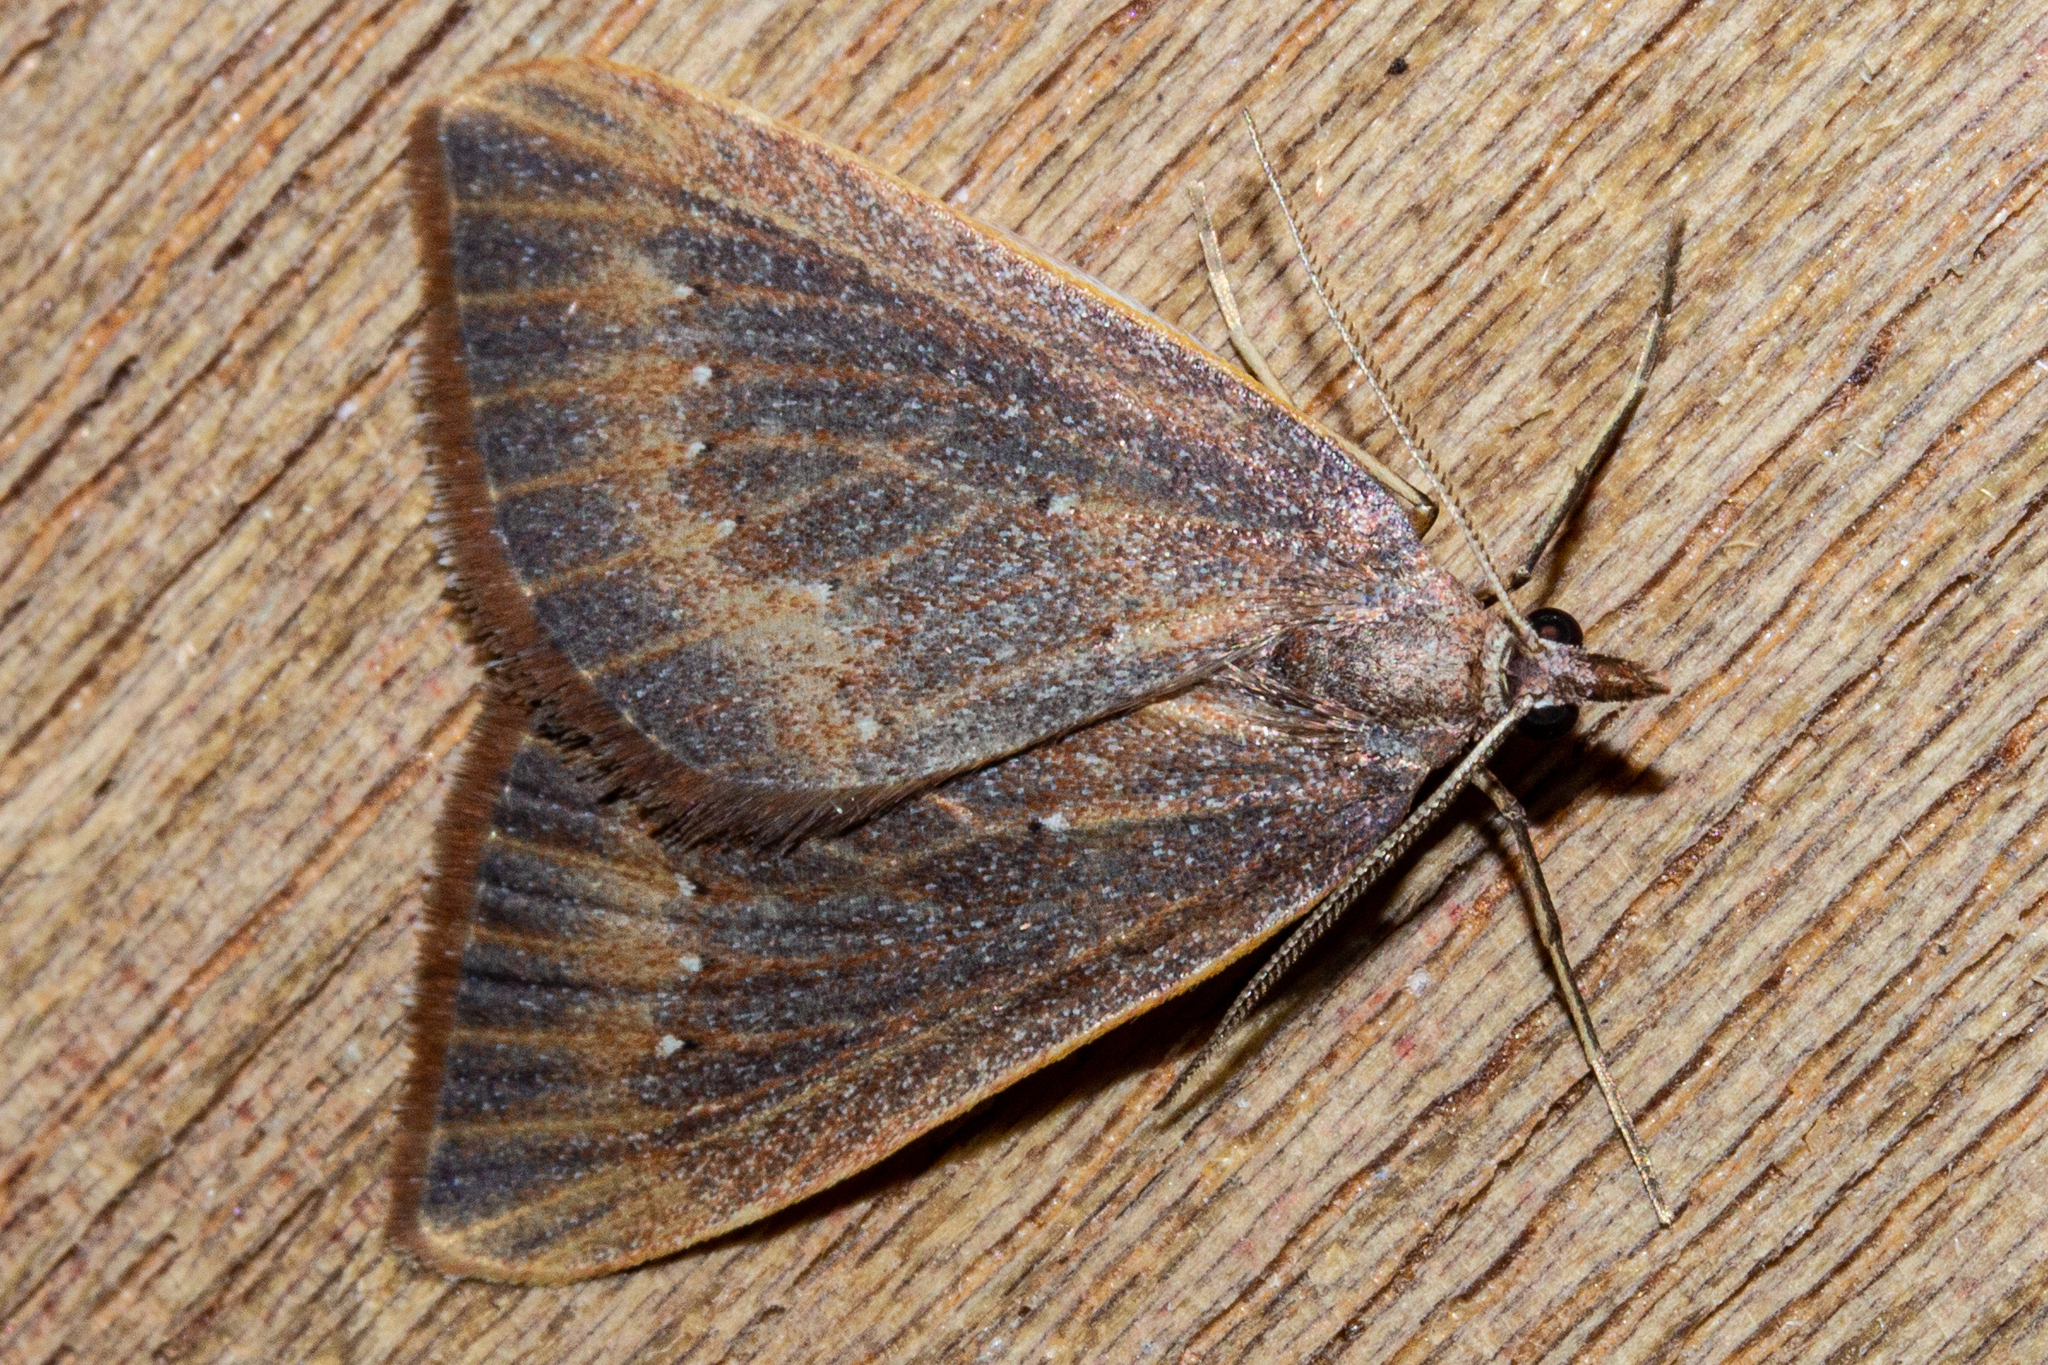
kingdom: Animalia
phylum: Arthropoda
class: Insecta
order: Lepidoptera
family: Geometridae
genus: Xanthorhoe
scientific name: Xanthorhoe occulta
